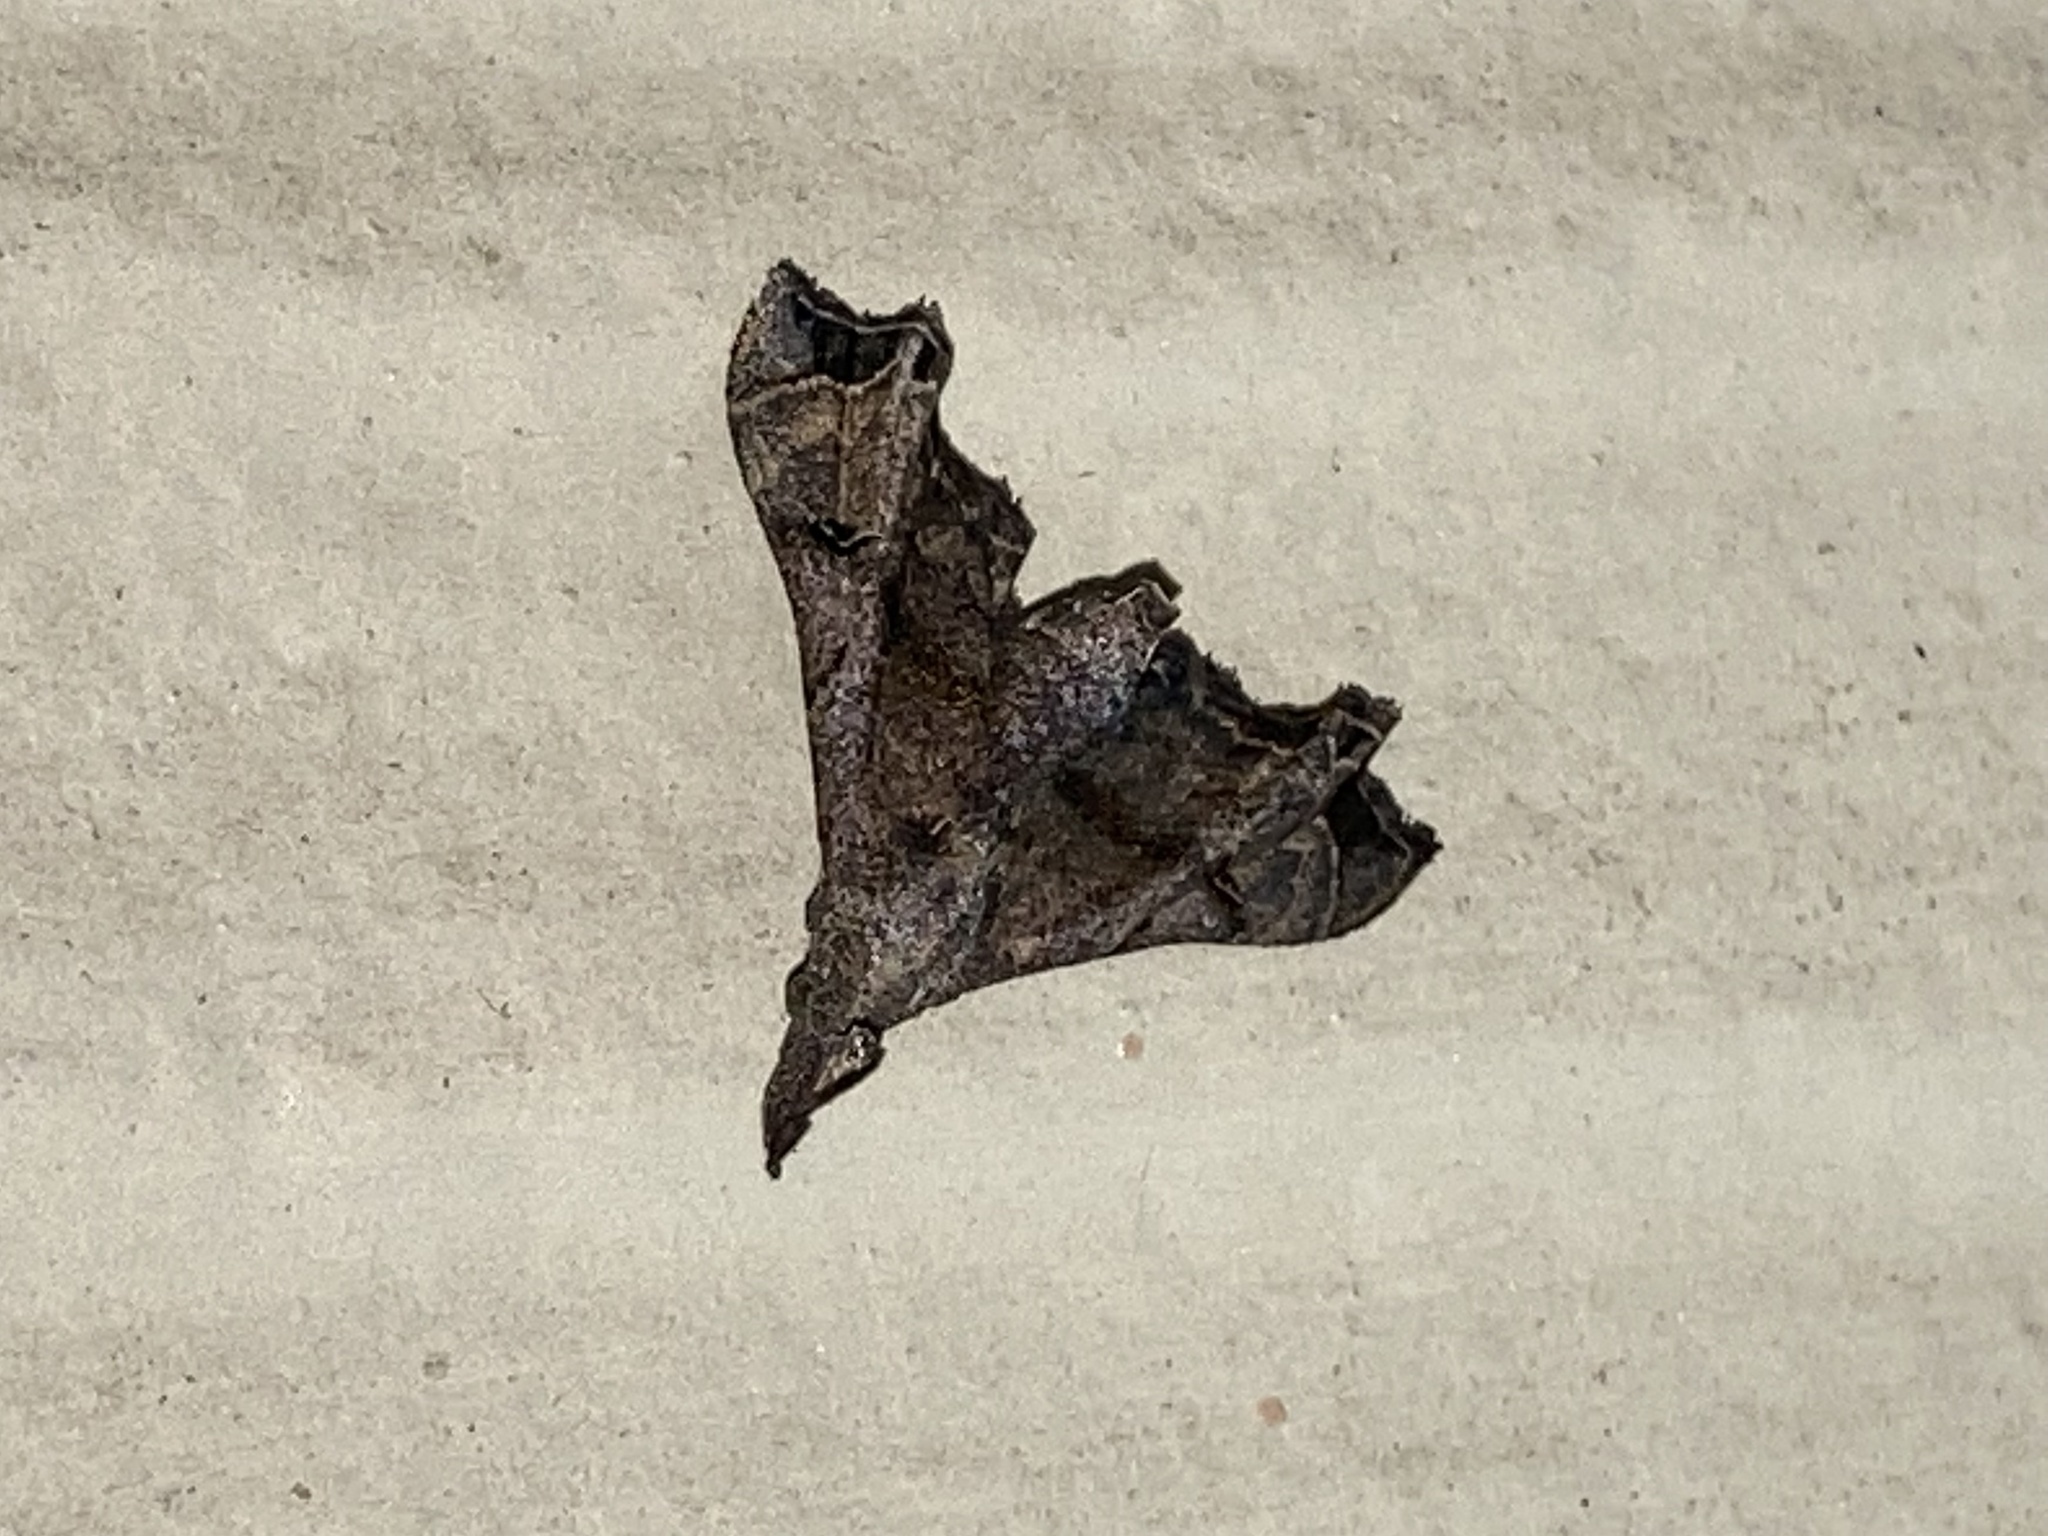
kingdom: Animalia
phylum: Arthropoda
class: Insecta
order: Lepidoptera
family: Erebidae
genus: Palthis
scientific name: Palthis asopialis
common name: Faint-spotted palthis moth
